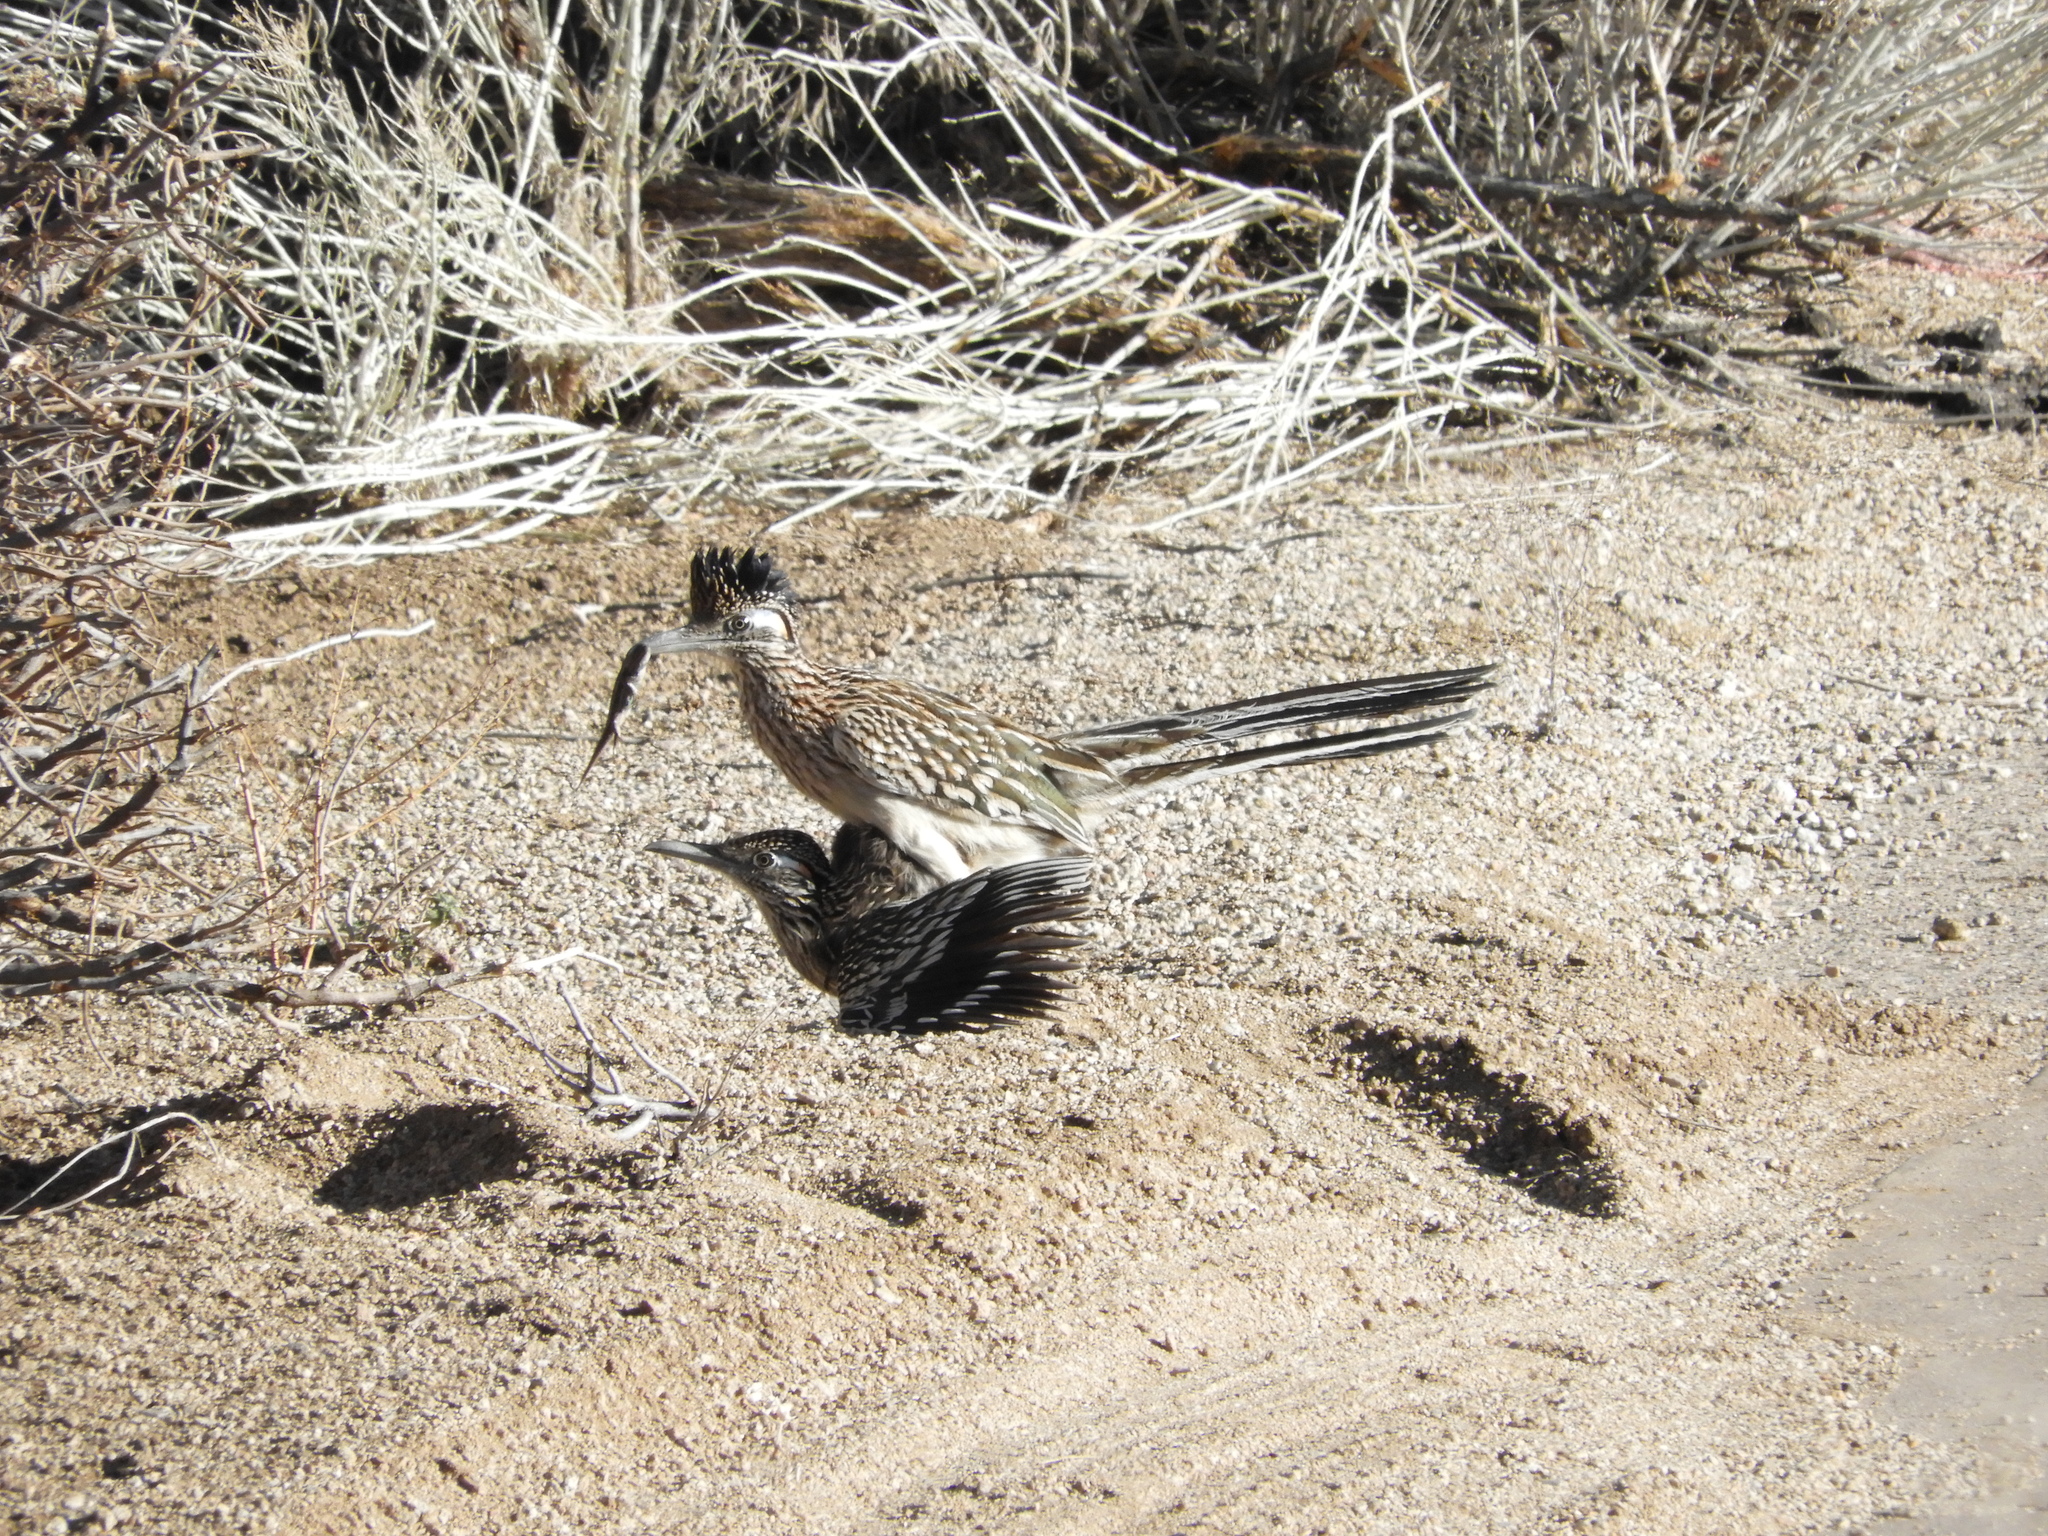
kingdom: Animalia
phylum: Chordata
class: Aves
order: Cuculiformes
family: Cuculidae
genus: Geococcyx
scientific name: Geococcyx californianus
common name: Greater roadrunner
